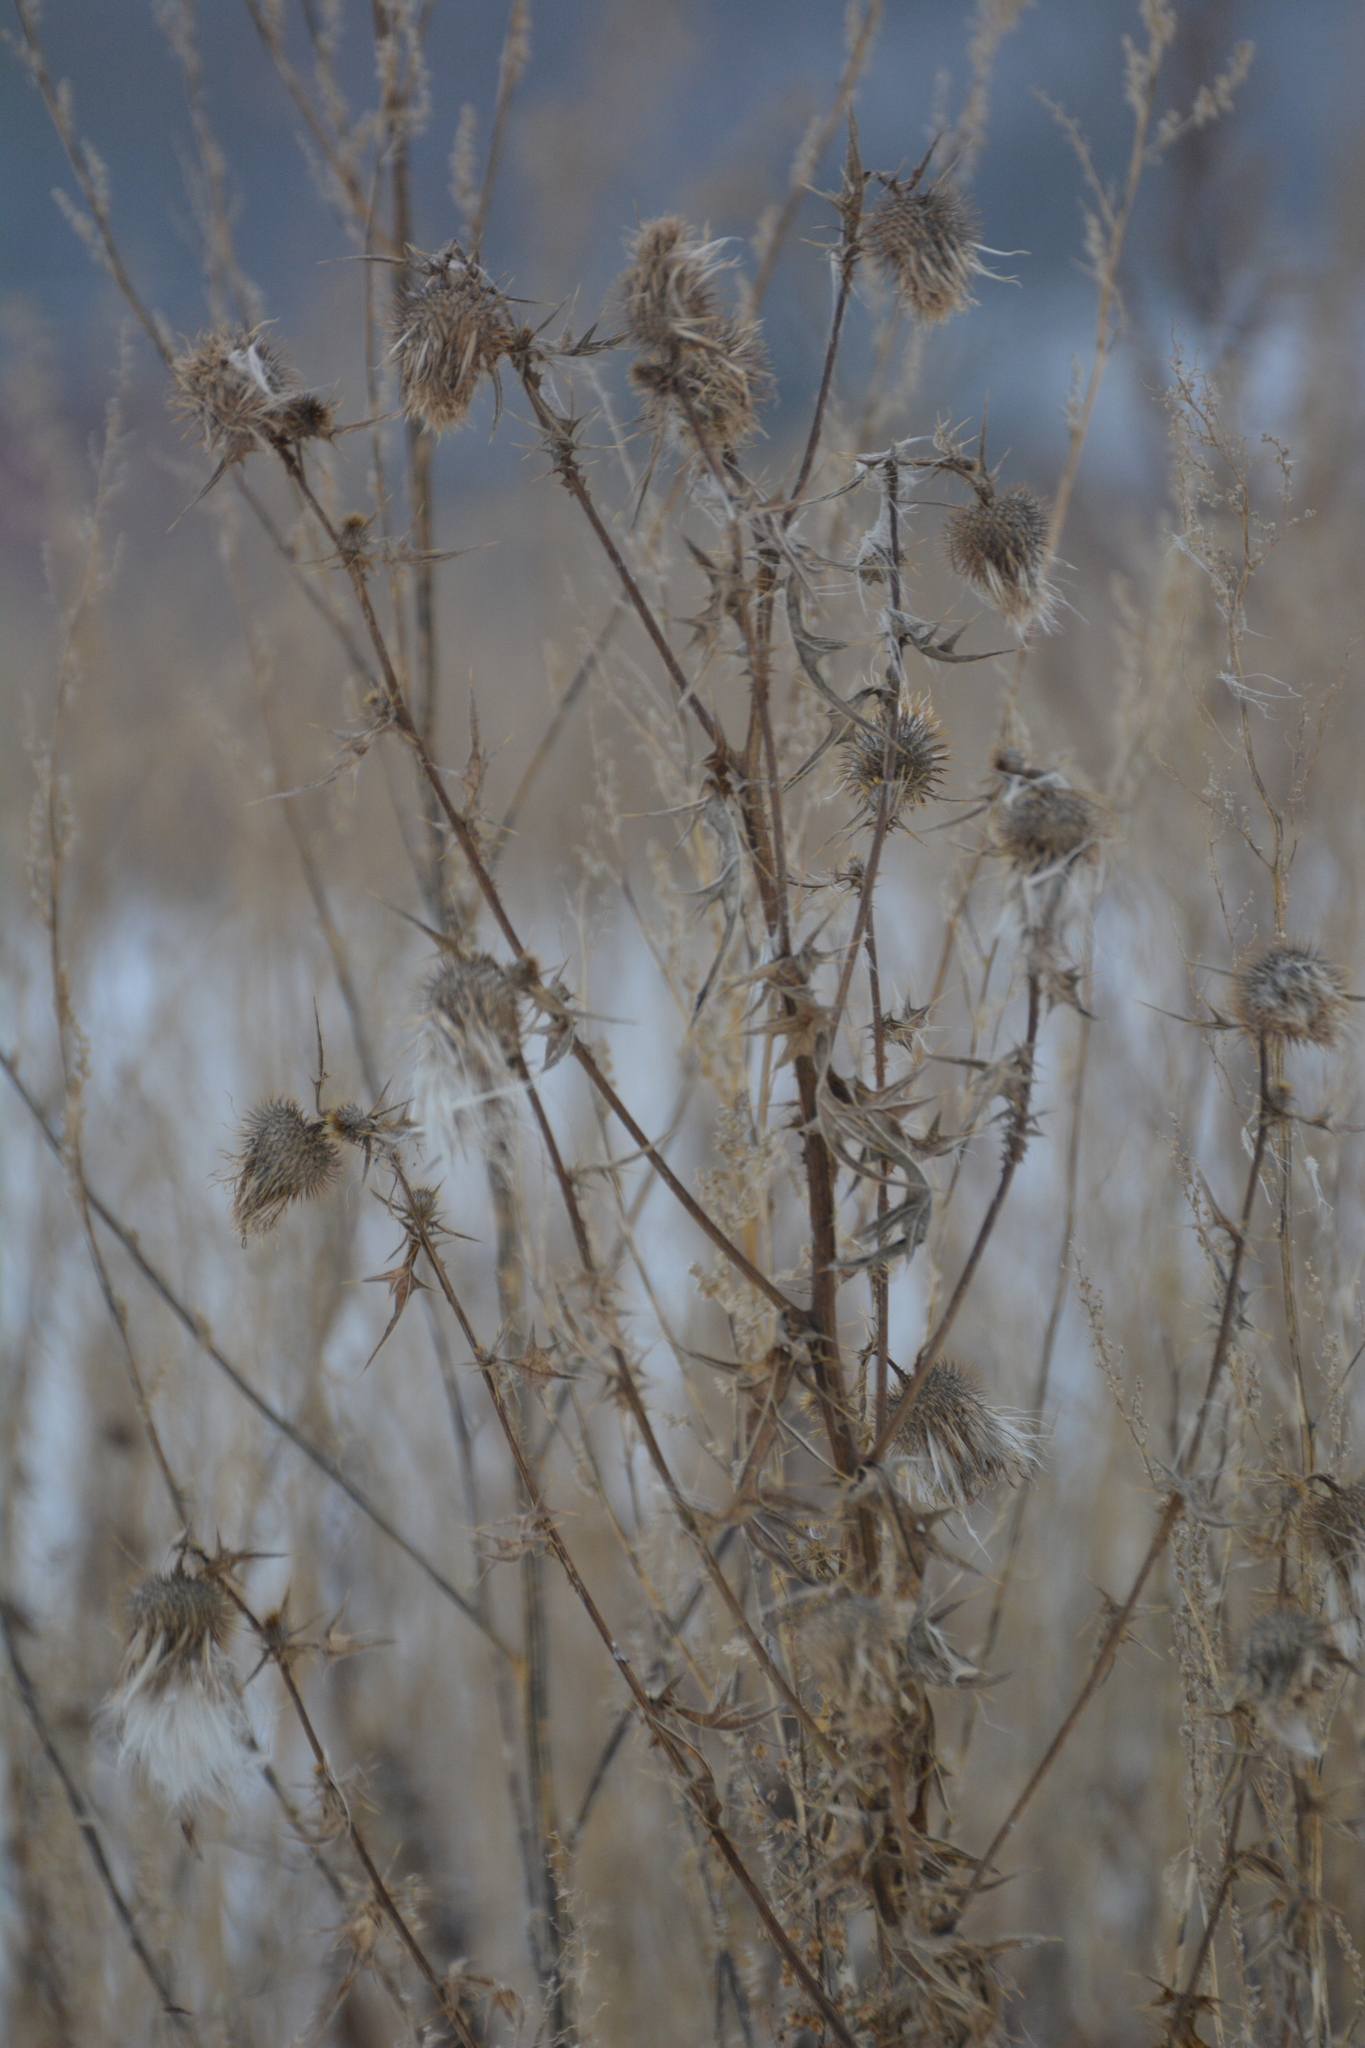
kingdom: Plantae
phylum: Tracheophyta
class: Magnoliopsida
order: Asterales
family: Asteraceae
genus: Cirsium
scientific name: Cirsium vulgare
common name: Bull thistle
